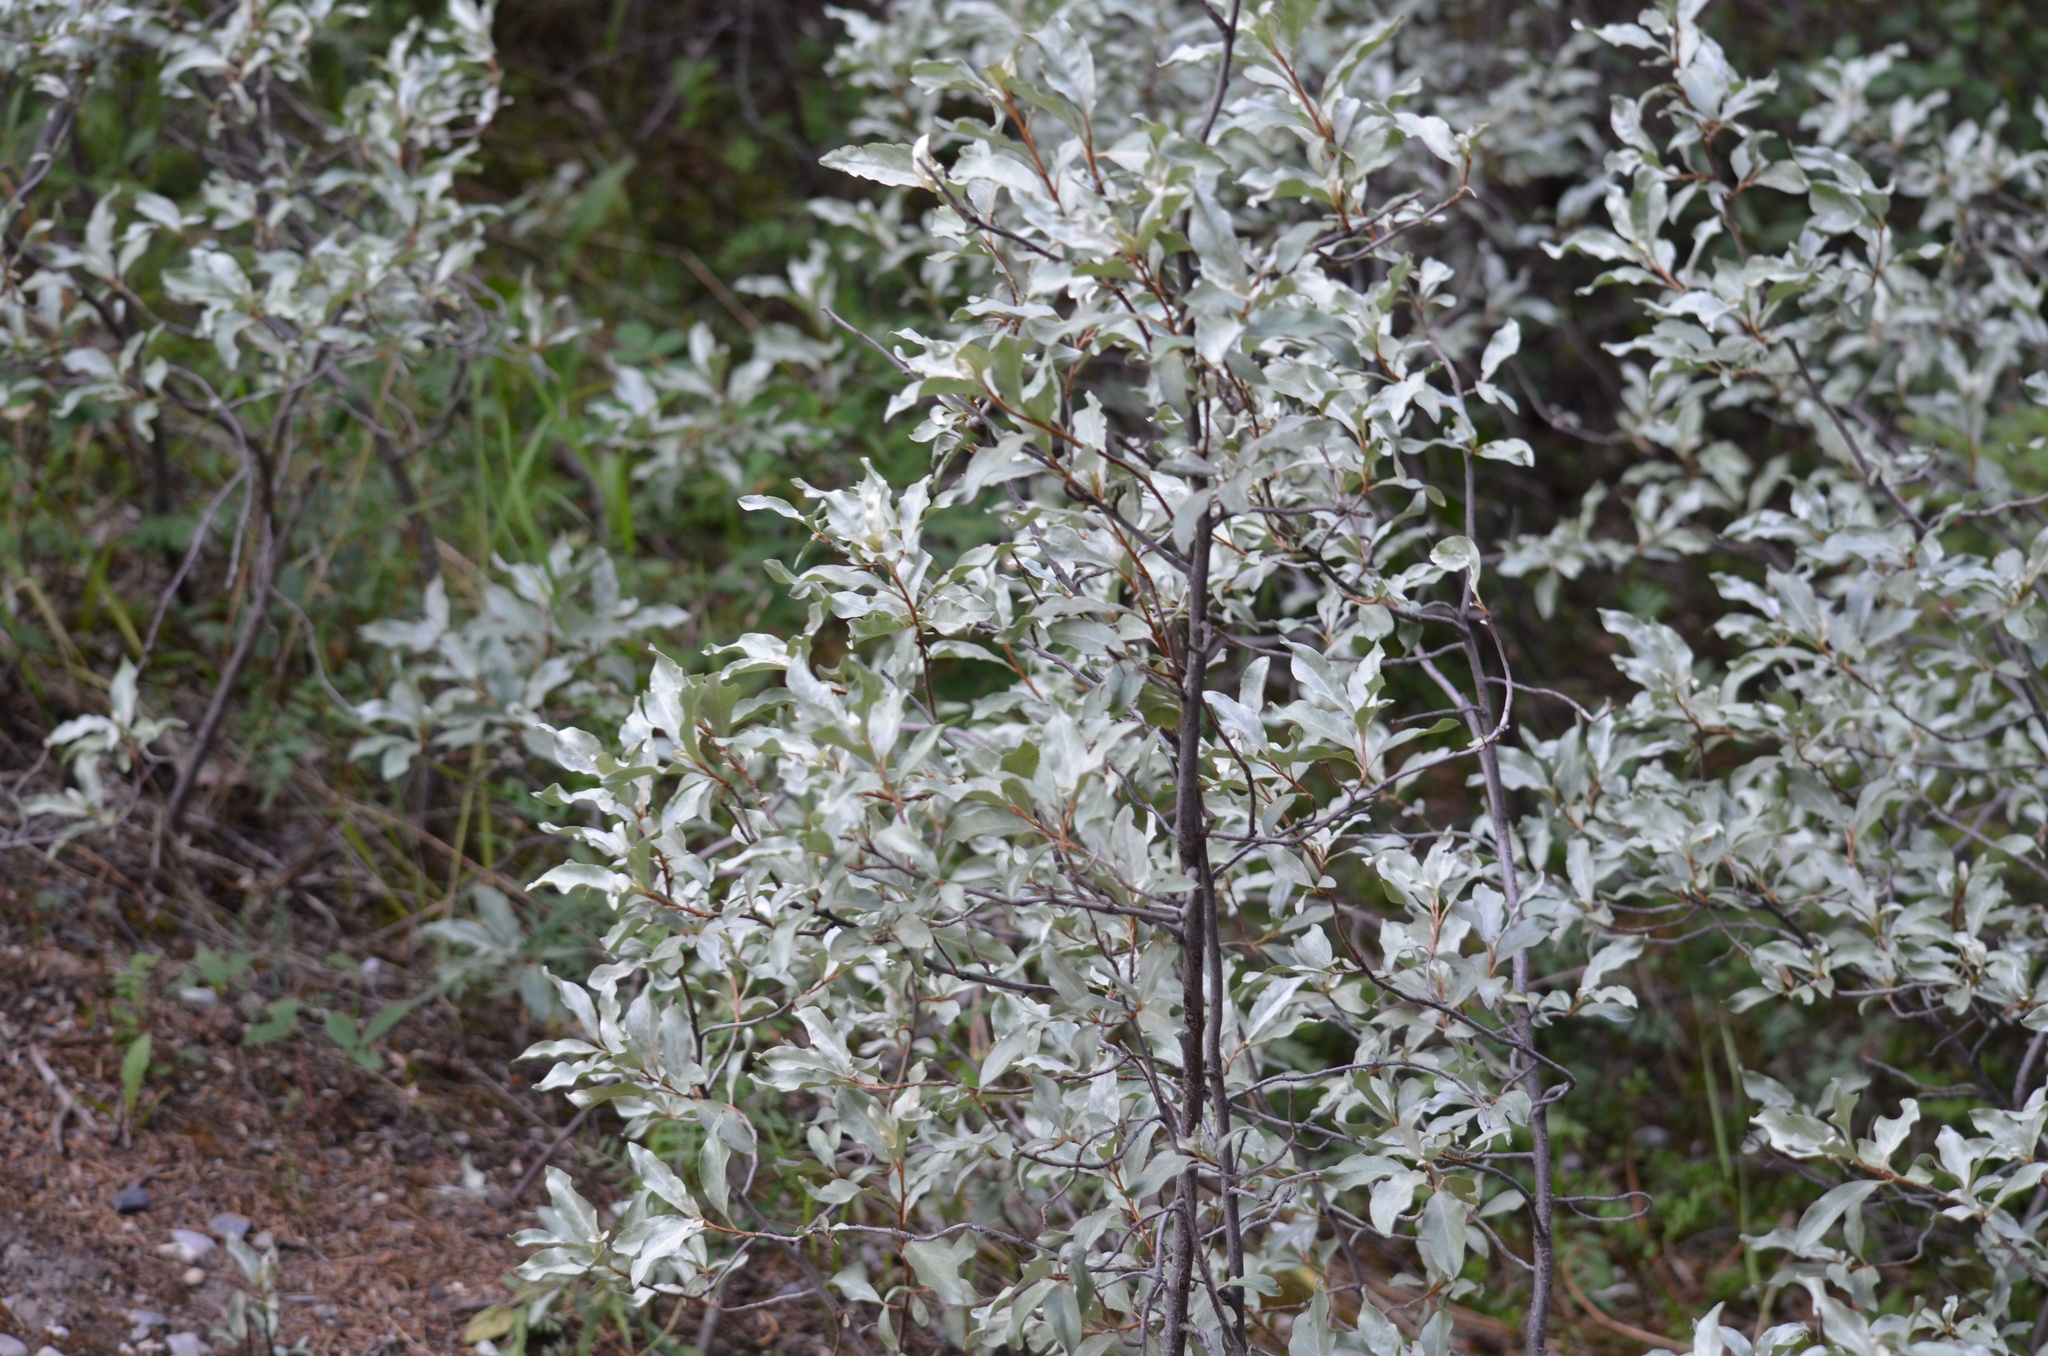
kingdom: Plantae
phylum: Tracheophyta
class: Magnoliopsida
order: Rosales
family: Elaeagnaceae
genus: Elaeagnus
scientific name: Elaeagnus commutata
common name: Silverberry
